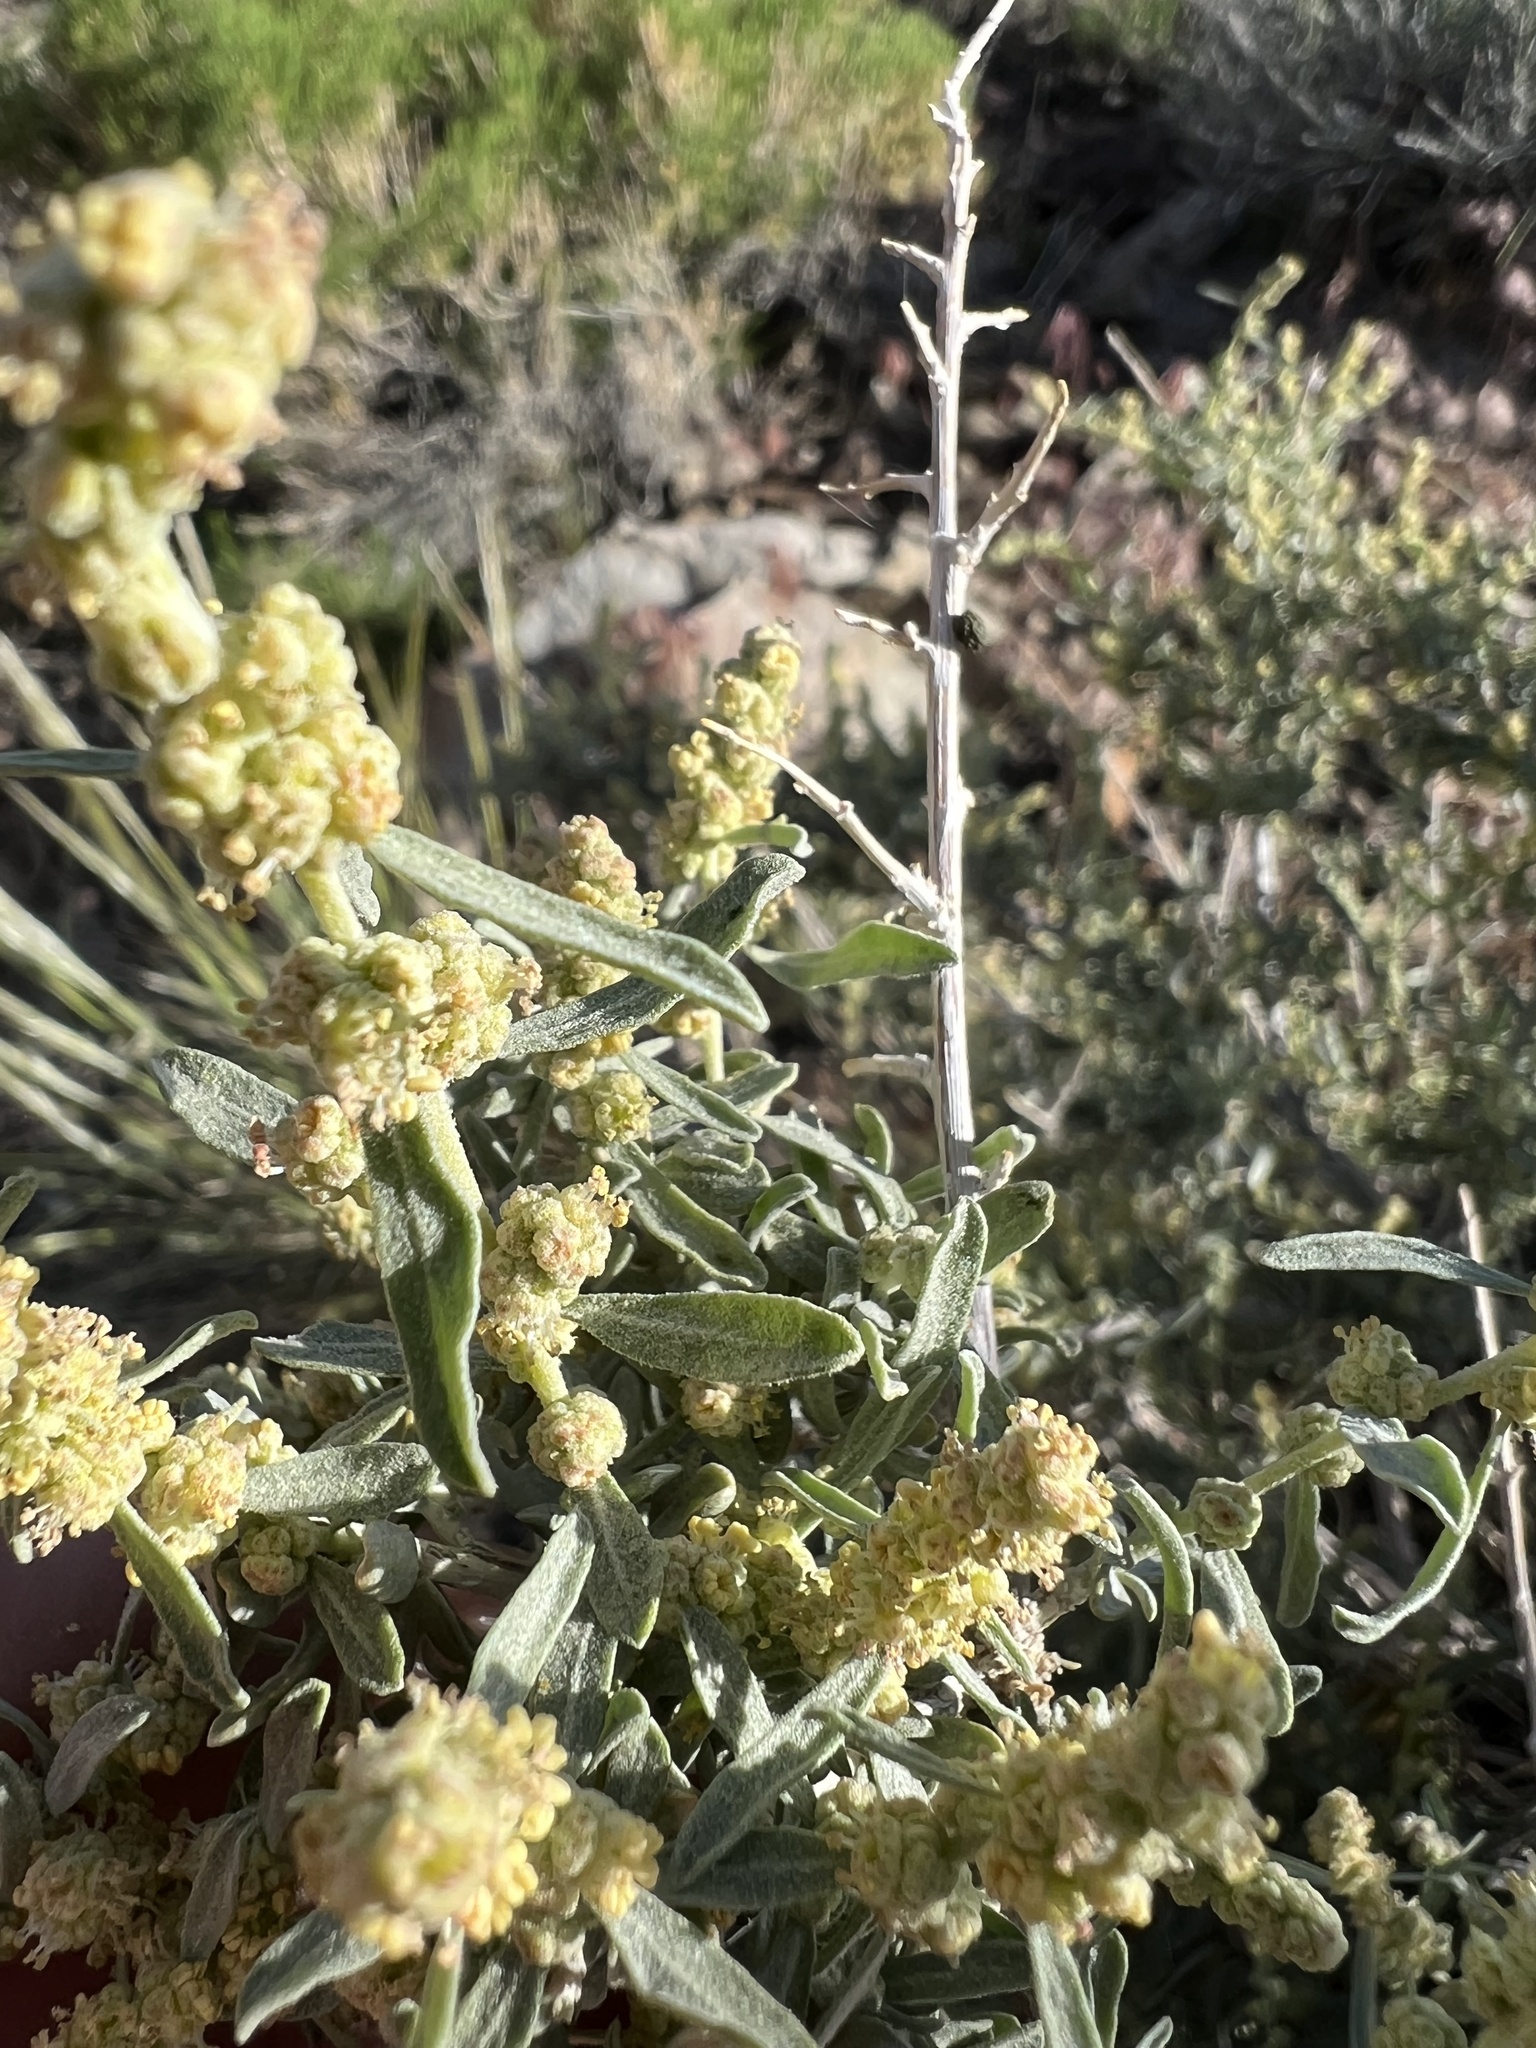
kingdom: Plantae
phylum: Tracheophyta
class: Magnoliopsida
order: Caryophyllales
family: Amaranthaceae
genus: Atriplex
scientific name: Atriplex canescens
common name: Four-wing saltbush
